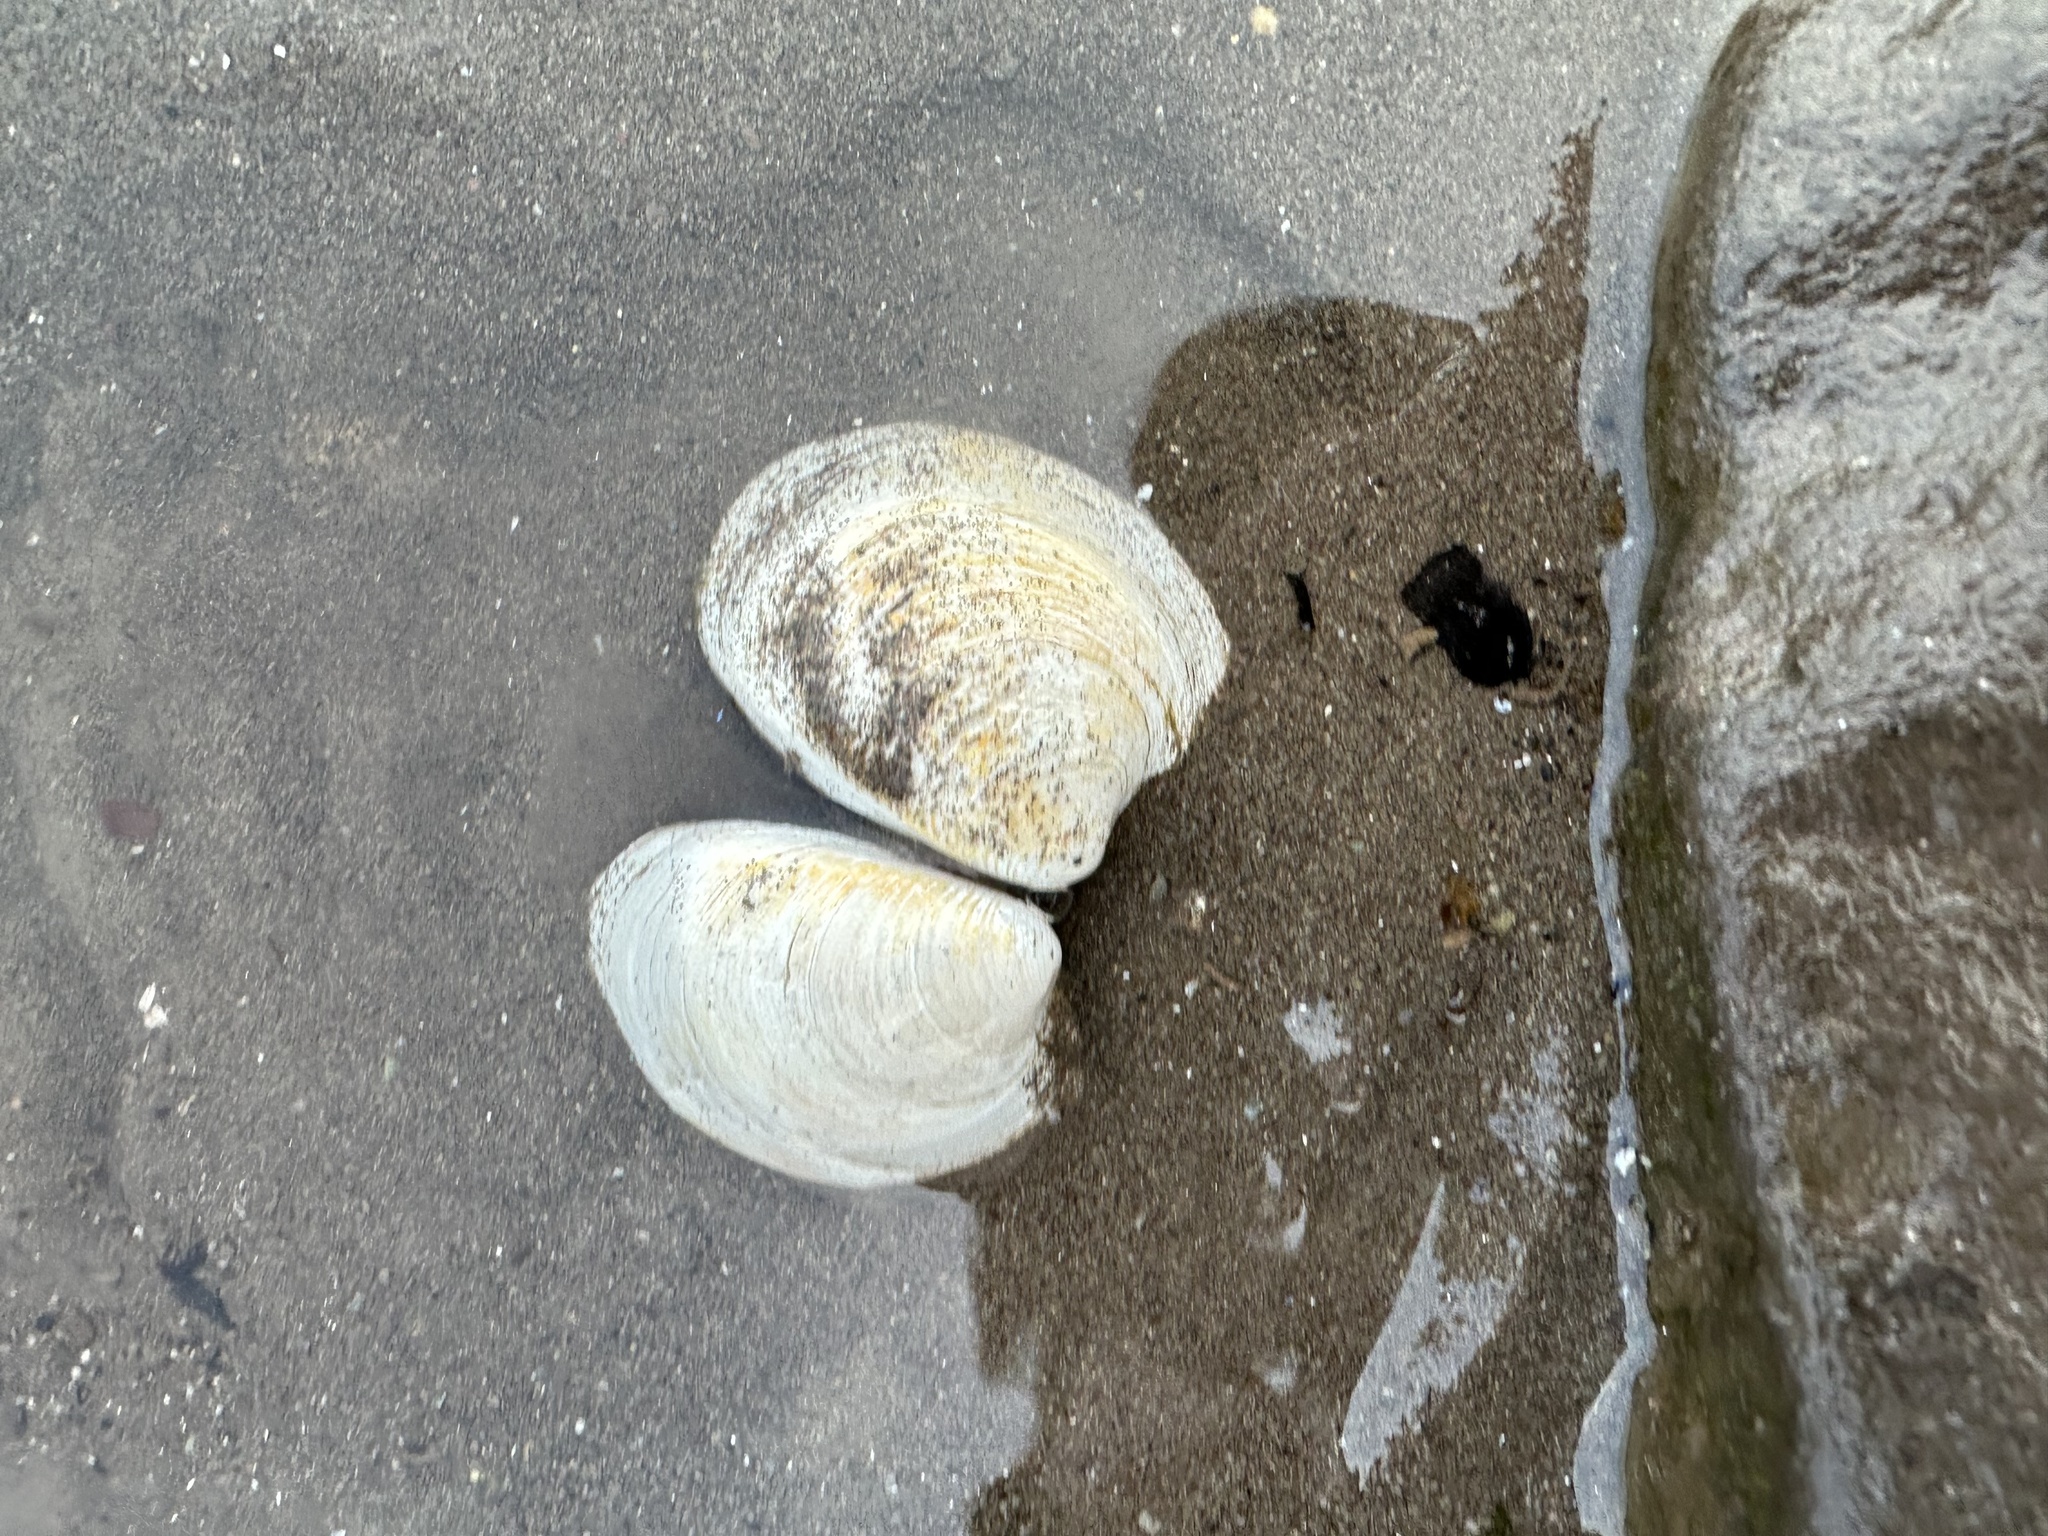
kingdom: Animalia
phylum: Mollusca
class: Bivalvia
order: Venerida
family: Veneridae
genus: Mercenaria
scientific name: Mercenaria mercenaria
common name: American hard-shelled clam
